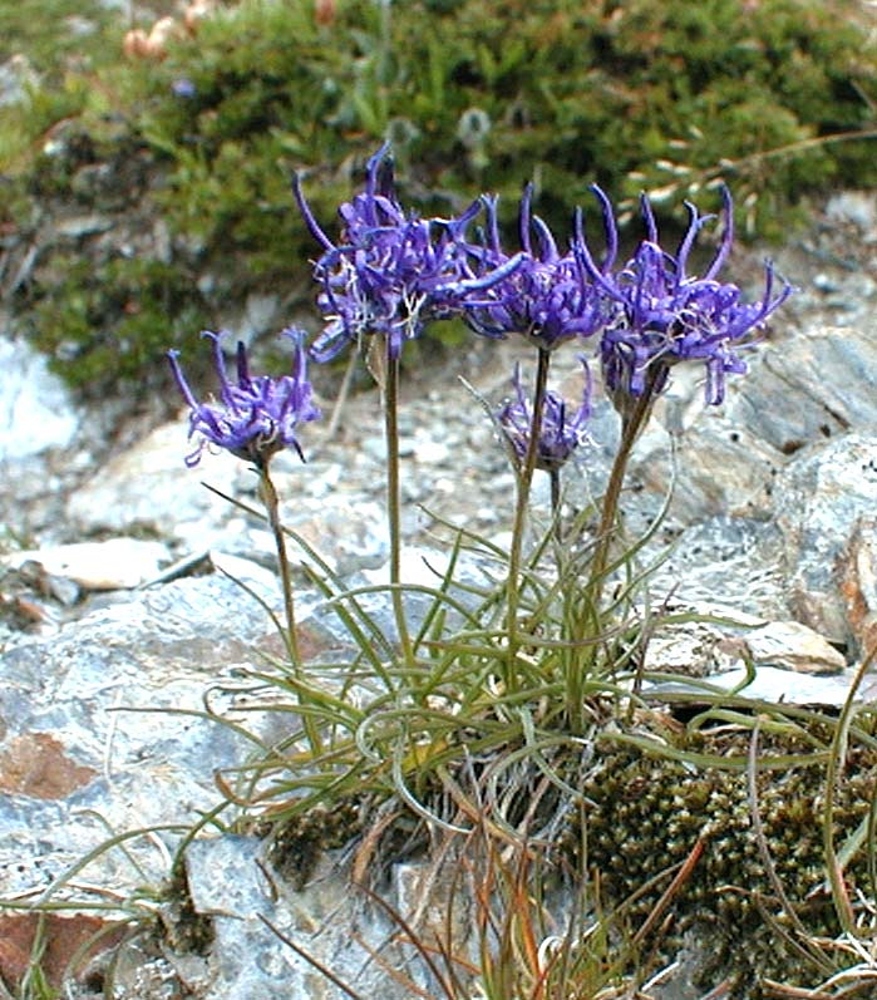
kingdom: Plantae
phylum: Tracheophyta
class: Magnoliopsida
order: Asterales
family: Campanulaceae
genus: Phyteuma
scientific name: Phyteuma hemisphaericum
